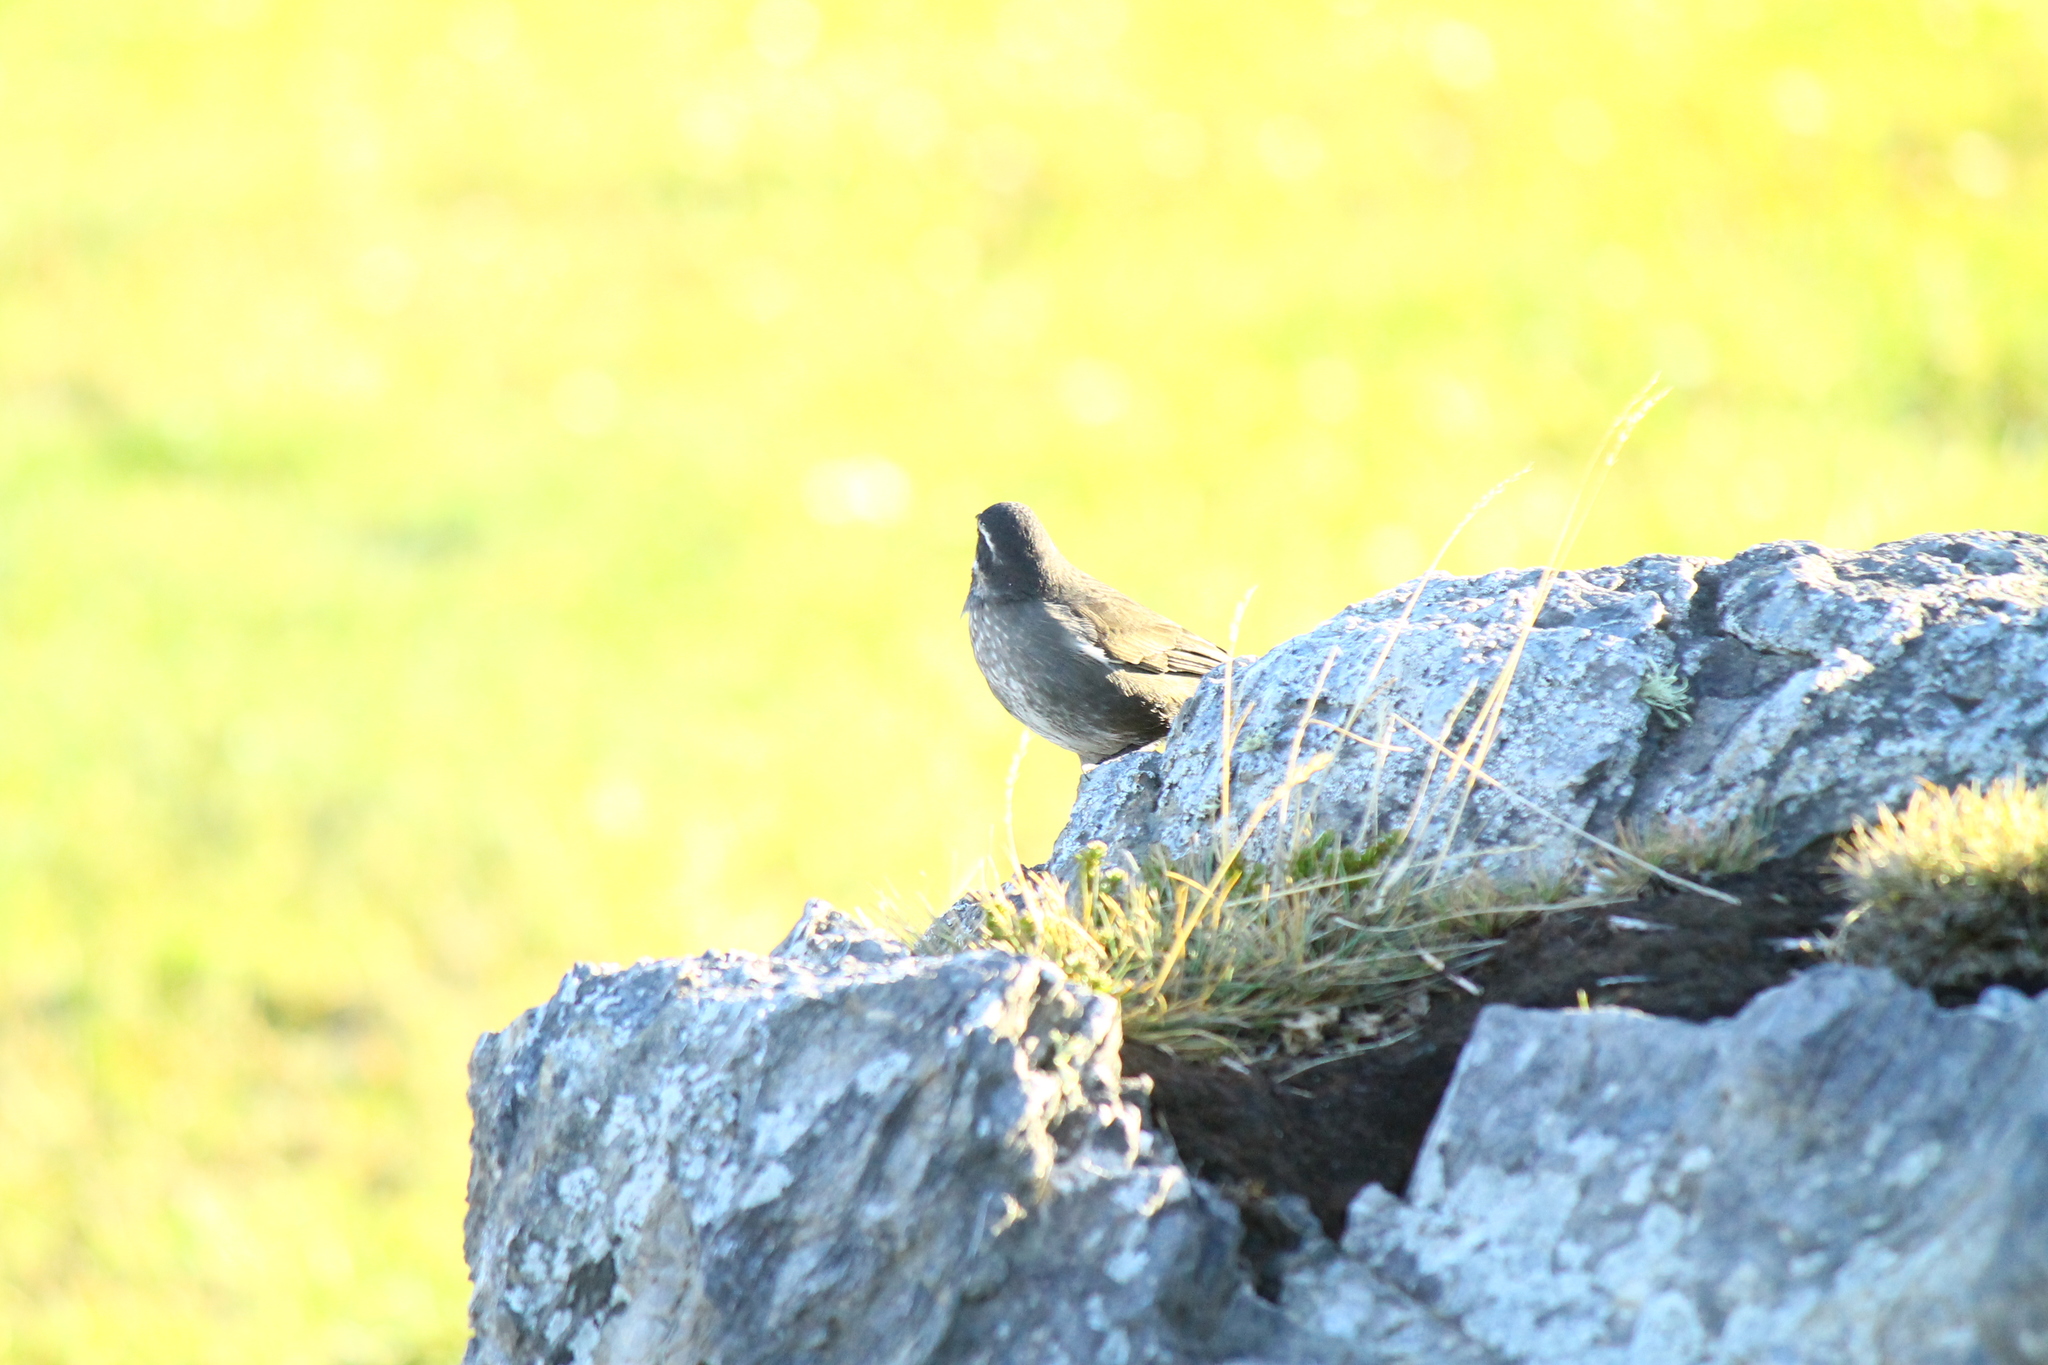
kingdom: Animalia
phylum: Chordata
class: Aves
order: Passeriformes
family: Furnariidae
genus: Cinclodes
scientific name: Cinclodes patagonicus
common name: Dark-bellied cinclodes
